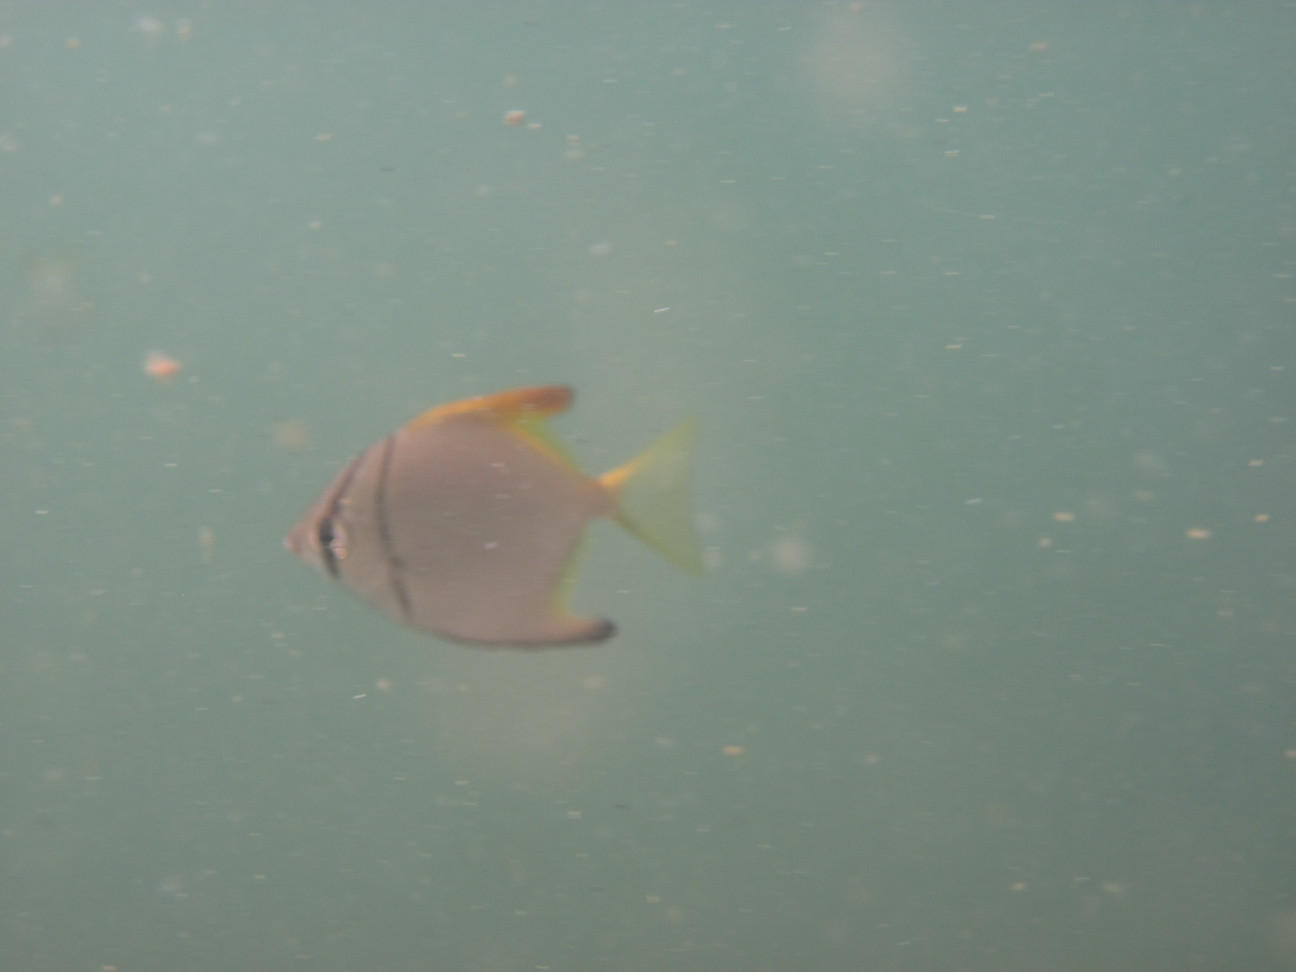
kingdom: Animalia
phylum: Chordata
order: Perciformes
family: Monodactylidae
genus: Monodactylus
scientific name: Monodactylus argenteus
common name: Silver moony
